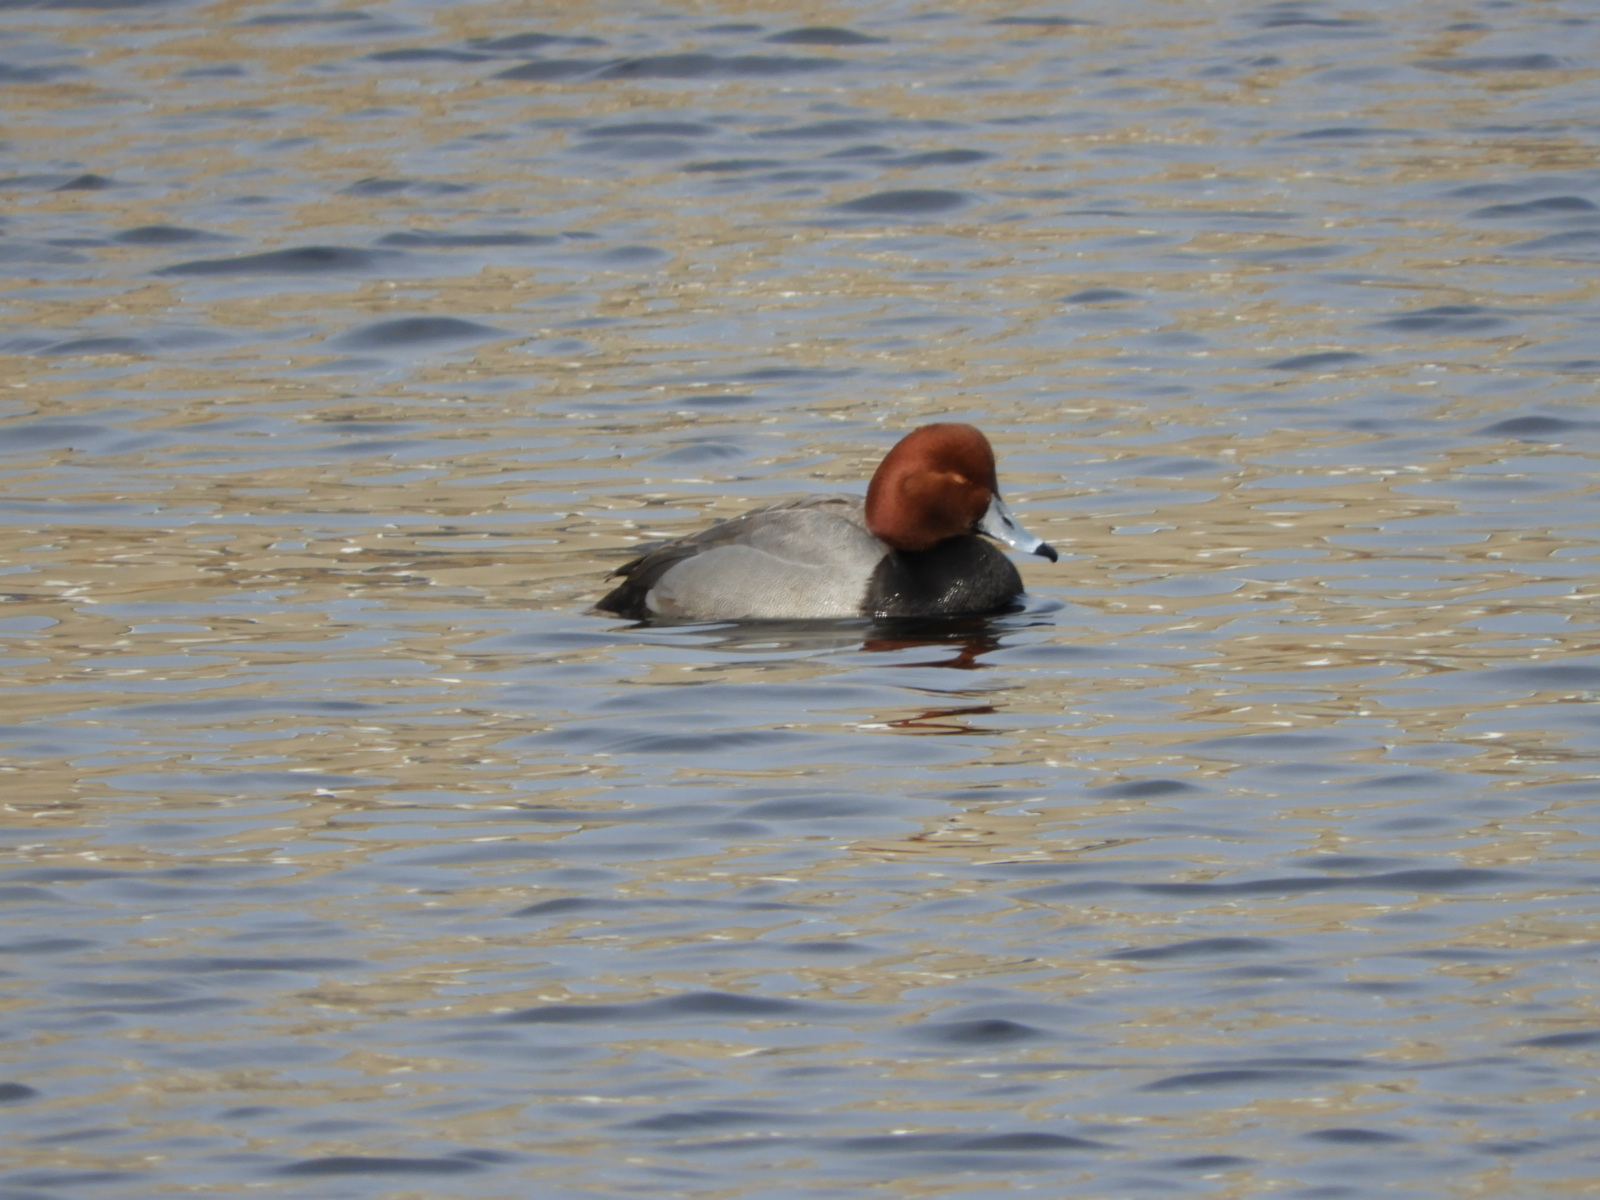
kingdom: Animalia
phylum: Chordata
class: Aves
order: Anseriformes
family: Anatidae
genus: Aythya
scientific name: Aythya americana
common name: Redhead
